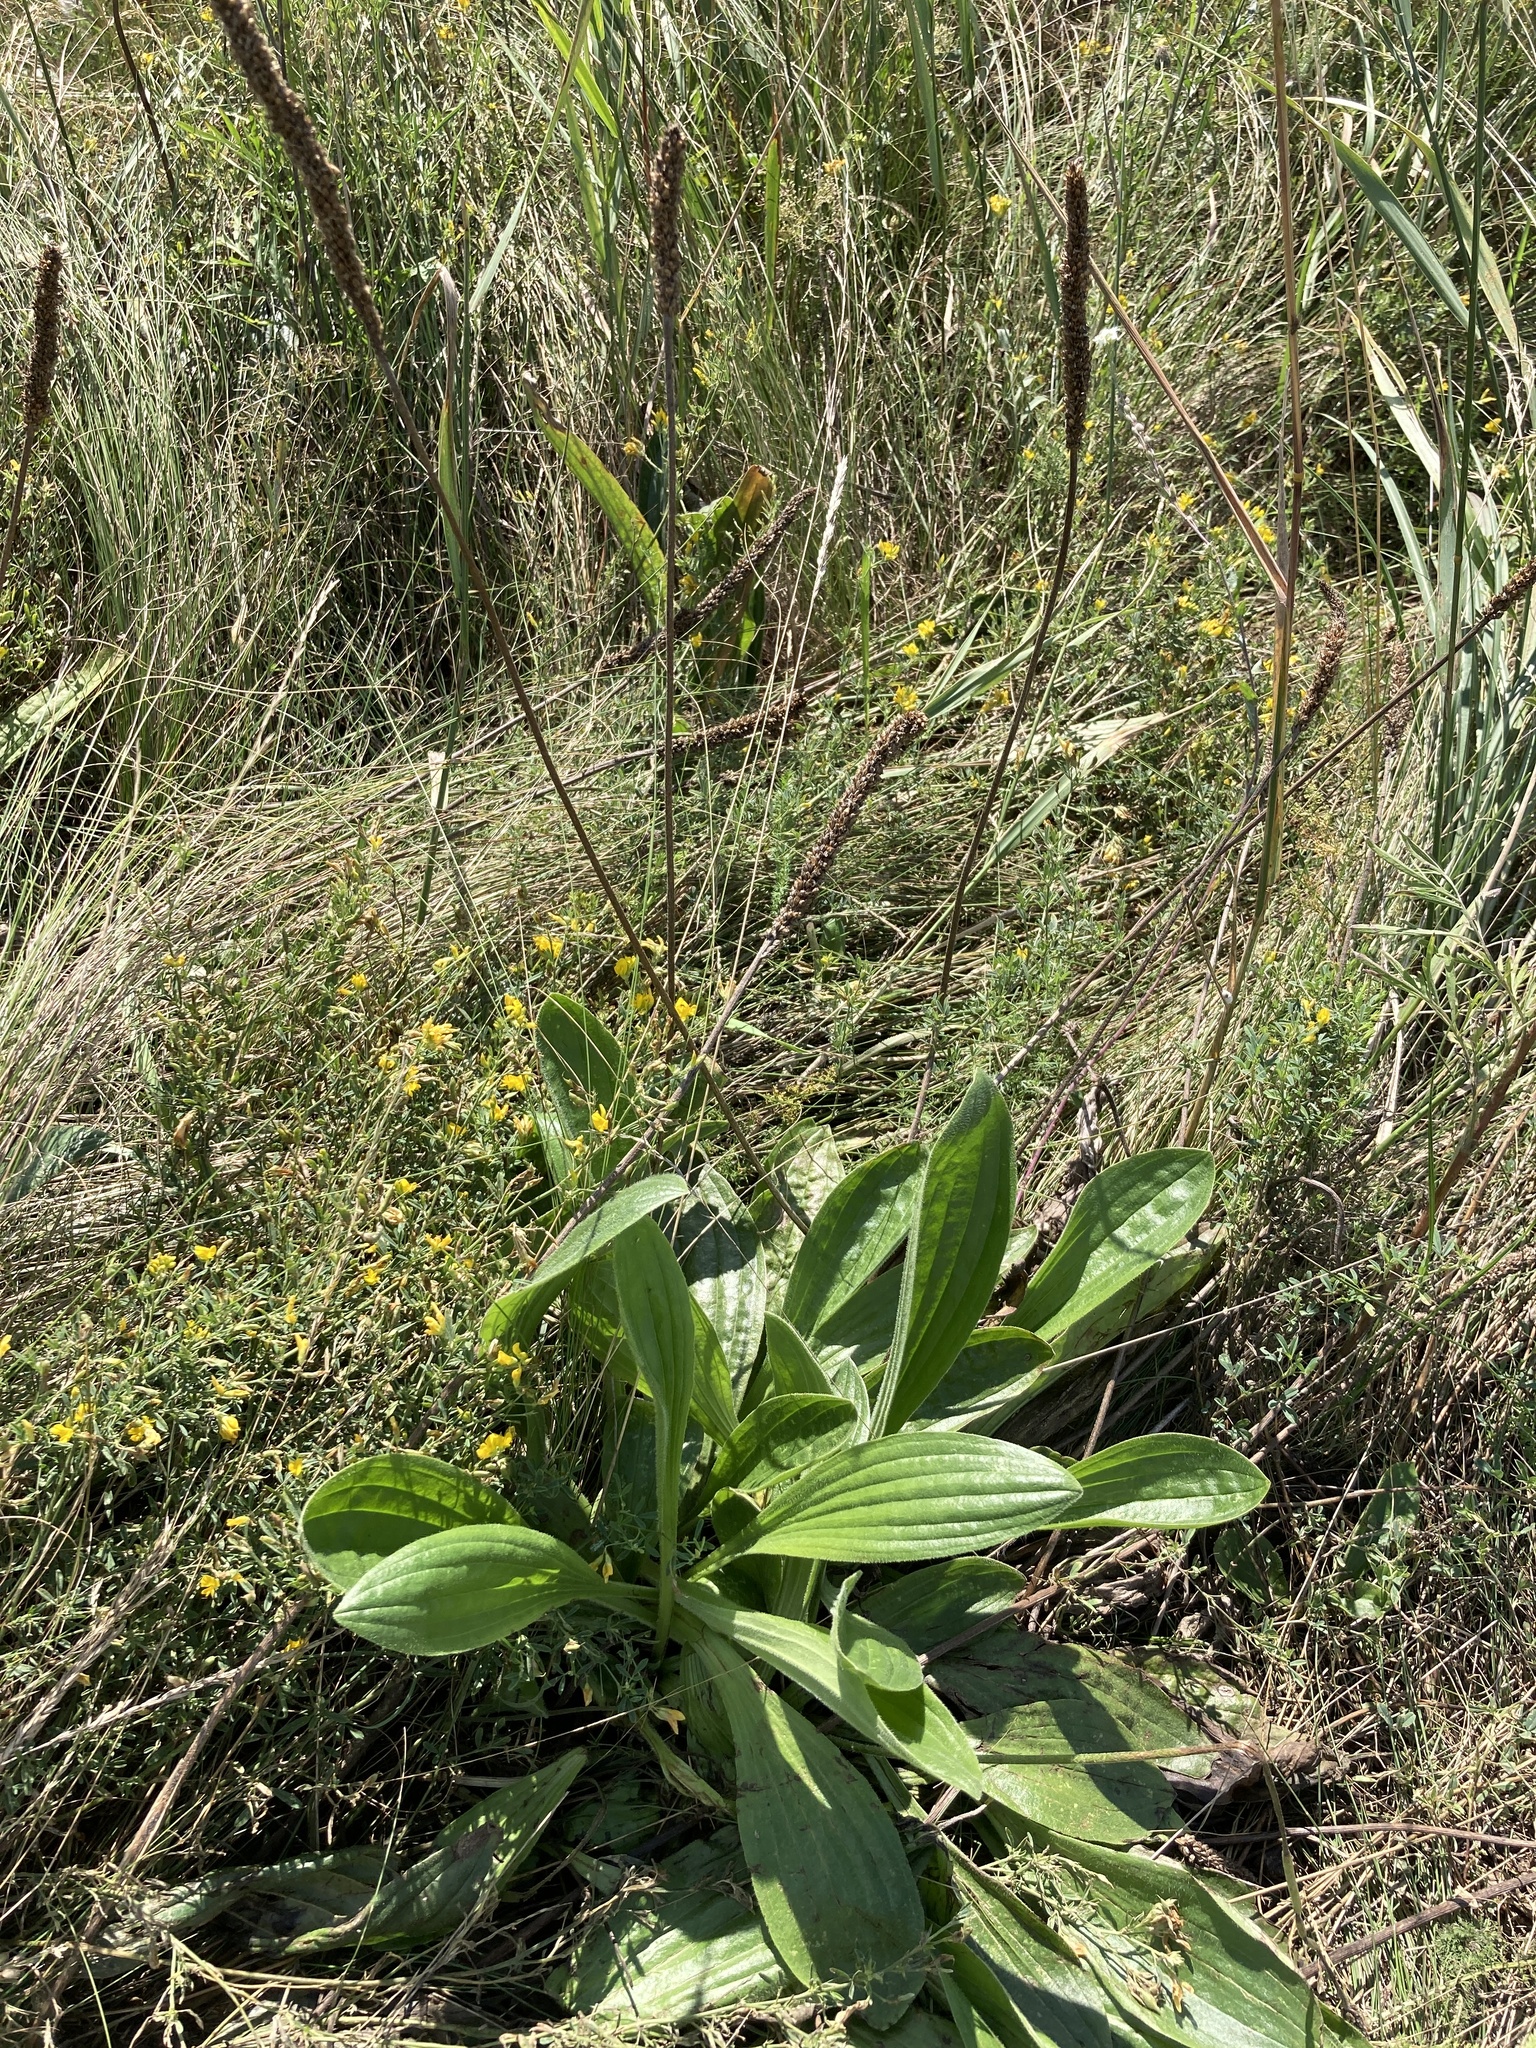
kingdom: Plantae
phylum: Tracheophyta
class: Magnoliopsida
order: Lamiales
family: Plantaginaceae
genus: Plantago
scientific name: Plantago urvillei
